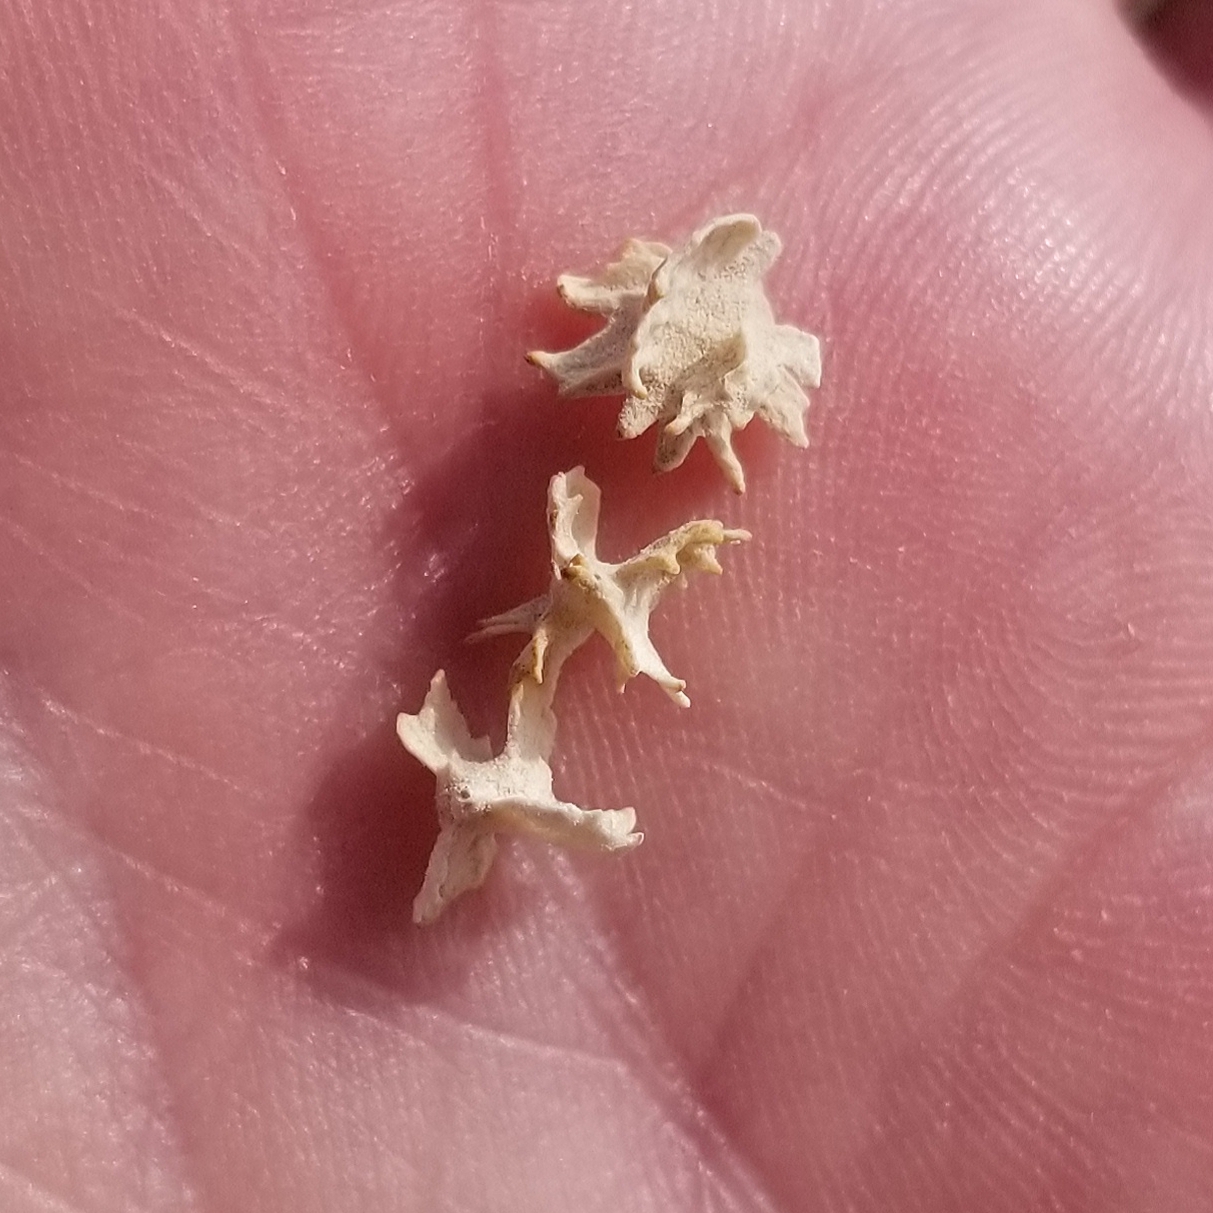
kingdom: Plantae
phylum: Tracheophyta
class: Magnoliopsida
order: Caryophyllales
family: Amaranthaceae
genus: Atriplex
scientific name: Atriplex canescens
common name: Four-wing saltbush
